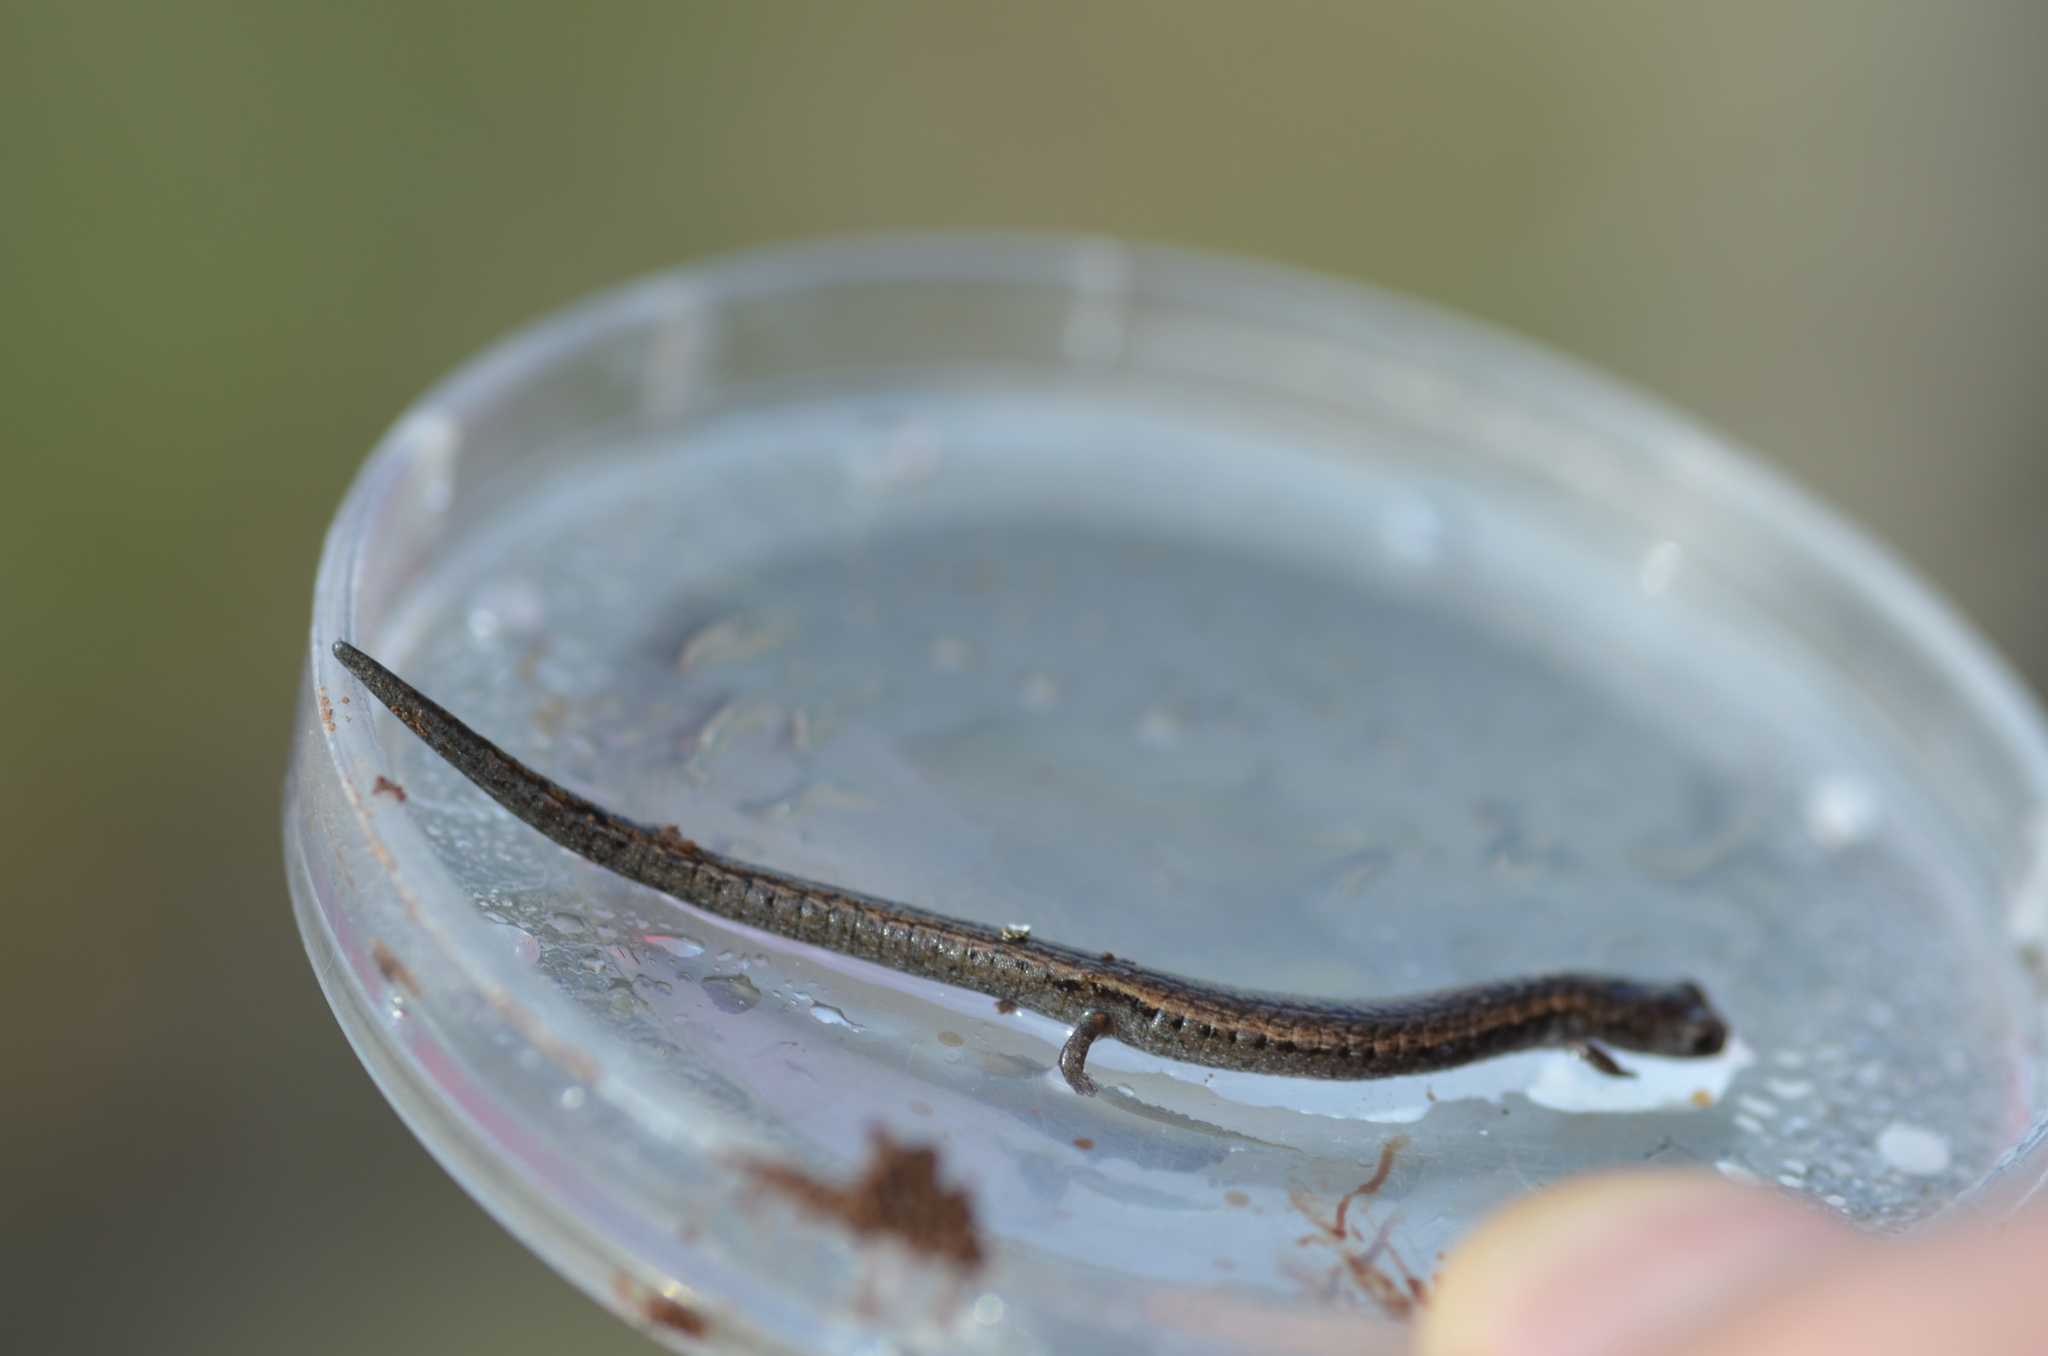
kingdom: Animalia
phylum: Chordata
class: Amphibia
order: Caudata
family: Plethodontidae
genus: Batrachoseps
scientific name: Batrachoseps attenuatus
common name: California slender salamander
